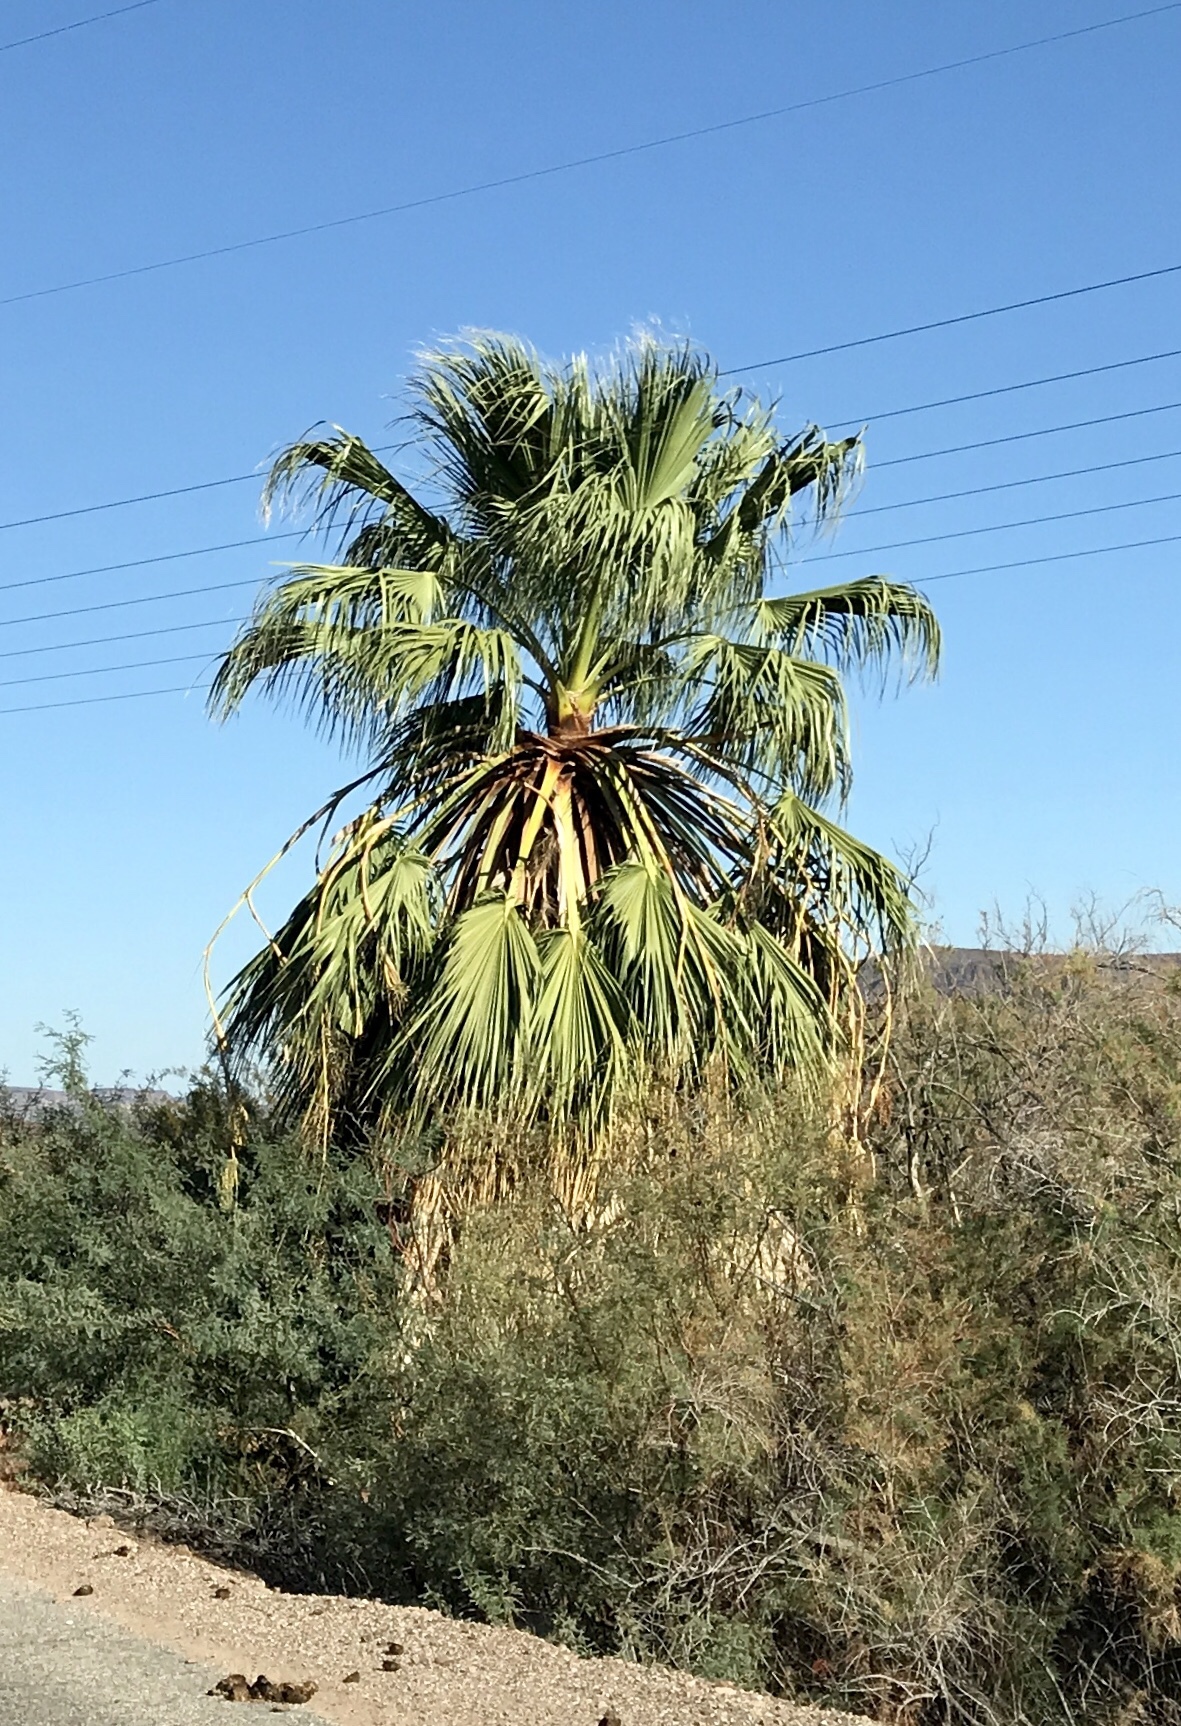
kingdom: Plantae
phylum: Tracheophyta
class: Liliopsida
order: Arecales
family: Arecaceae
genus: Washingtonia
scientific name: Washingtonia filifera
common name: California fan palm
